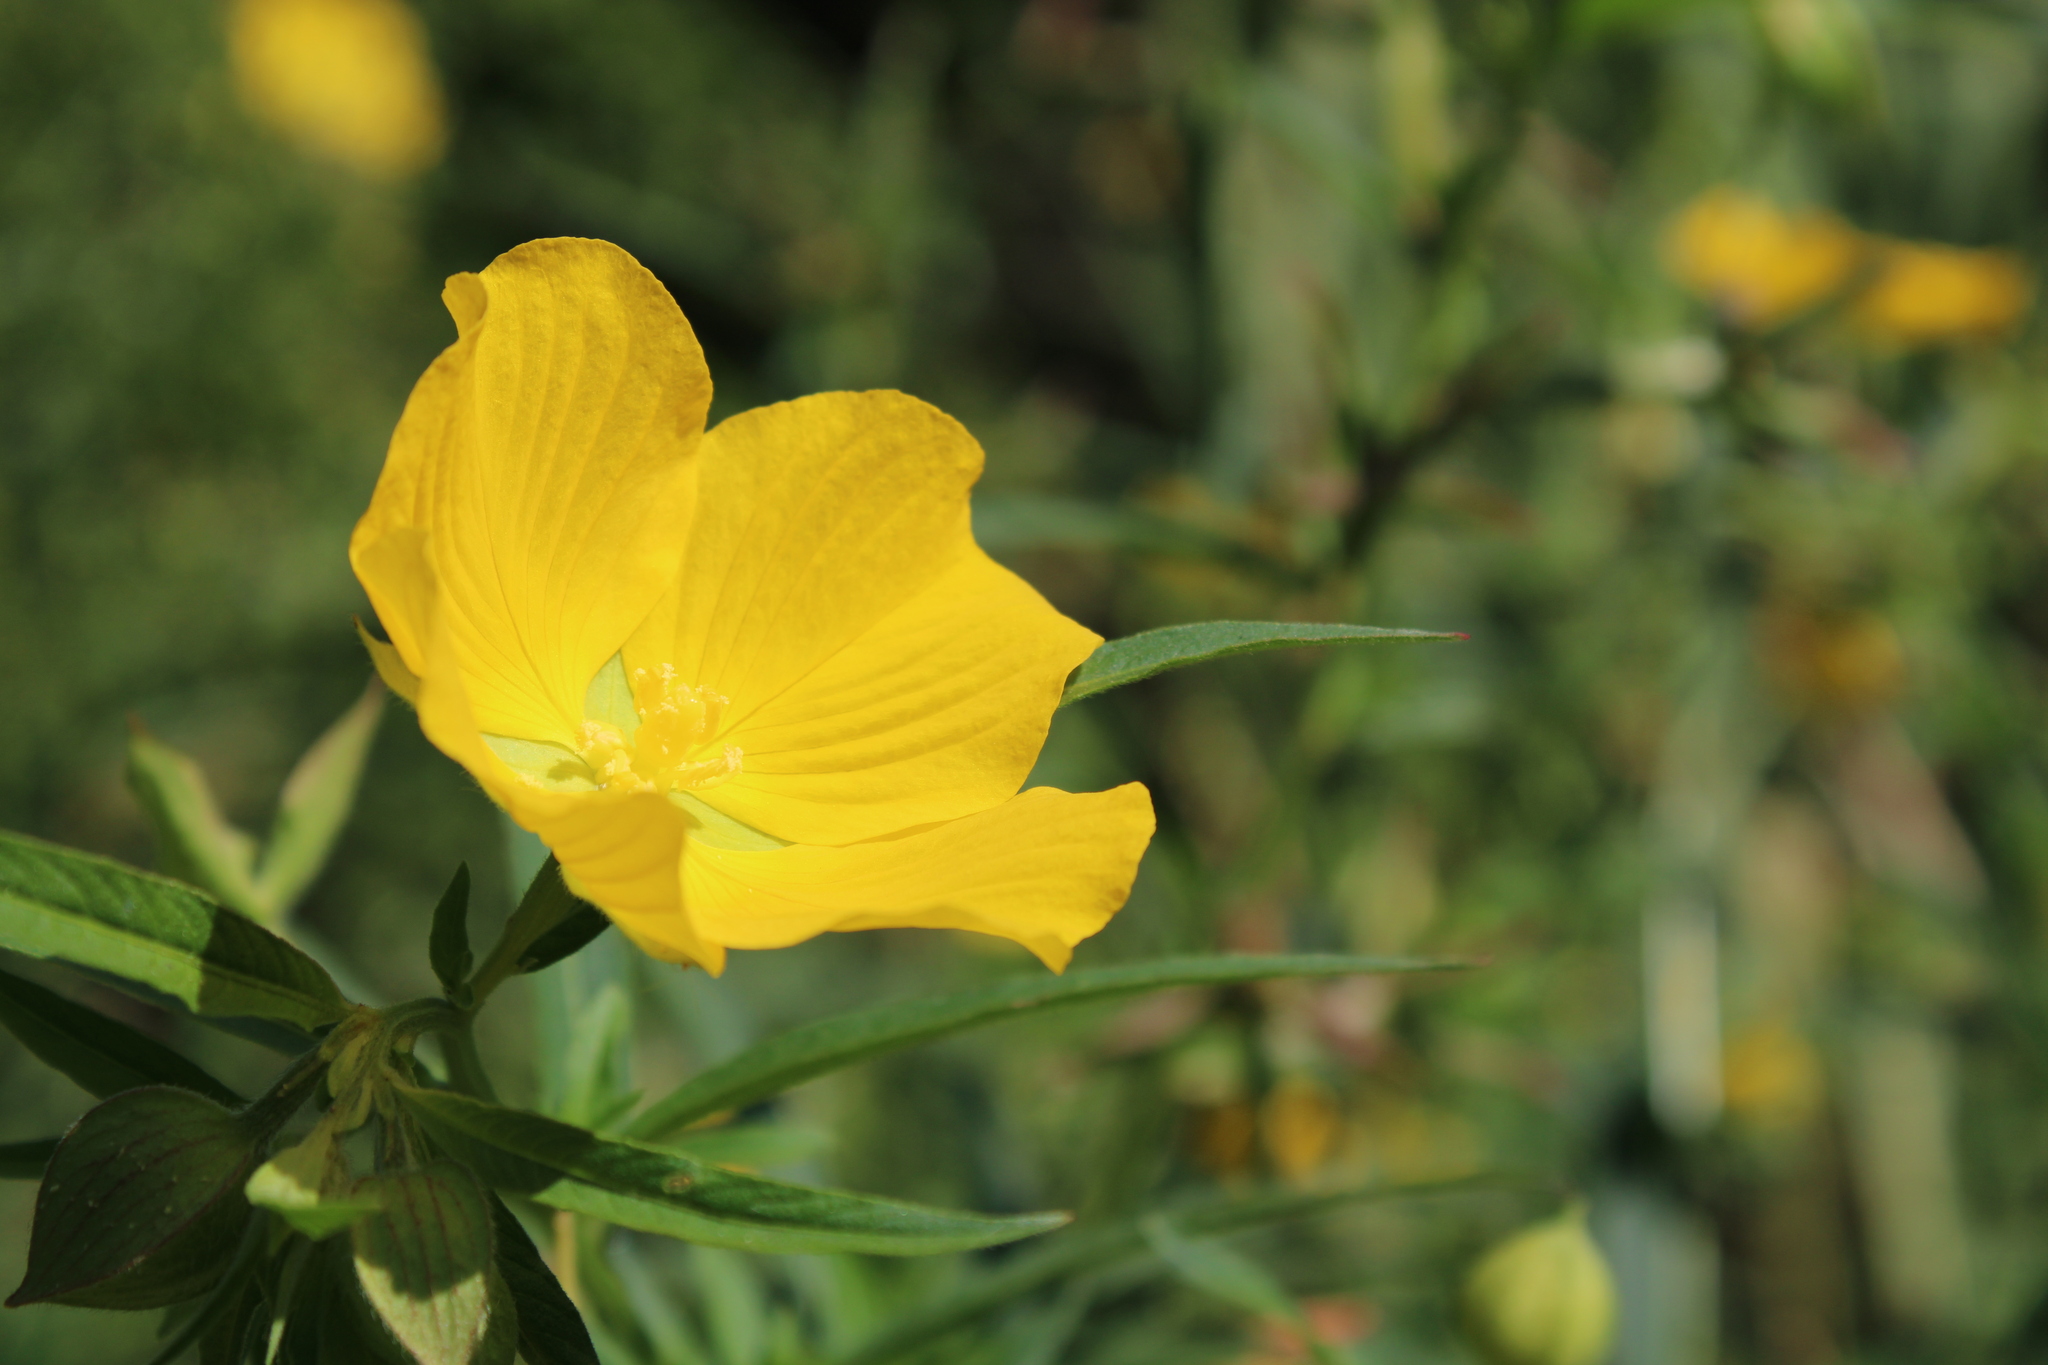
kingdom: Plantae
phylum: Tracheophyta
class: Magnoliopsida
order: Myrtales
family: Onagraceae
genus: Ludwigia
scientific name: Ludwigia elegans
